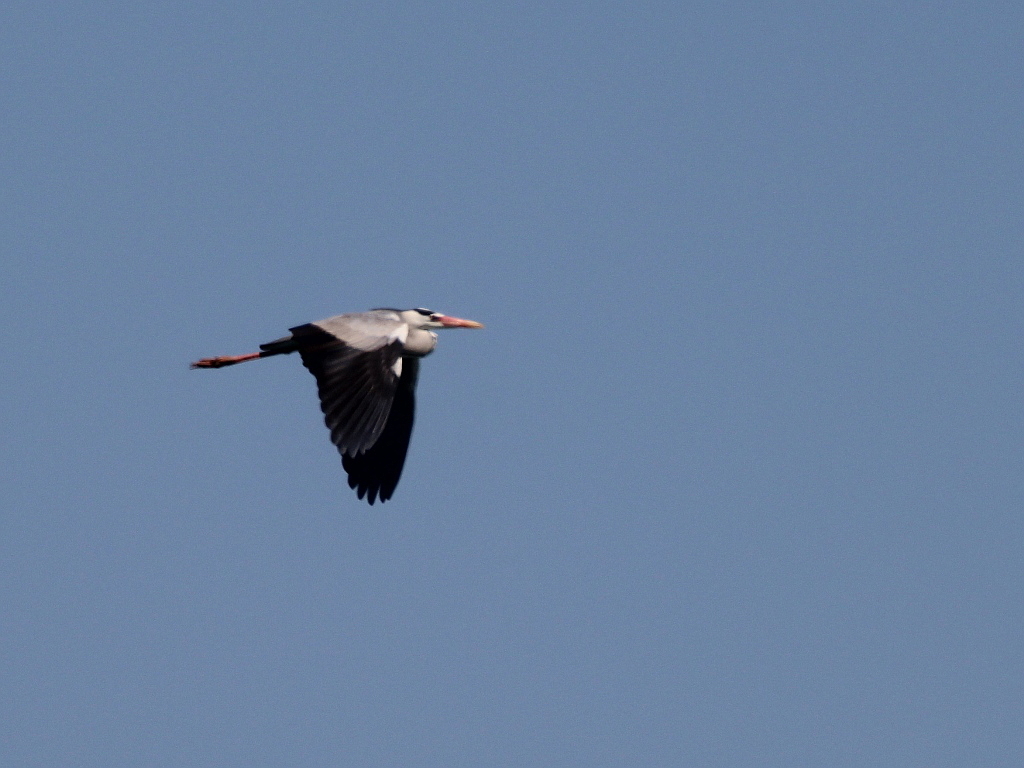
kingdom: Animalia
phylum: Chordata
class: Aves
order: Pelecaniformes
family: Ardeidae
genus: Ardea
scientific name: Ardea cinerea
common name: Grey heron
